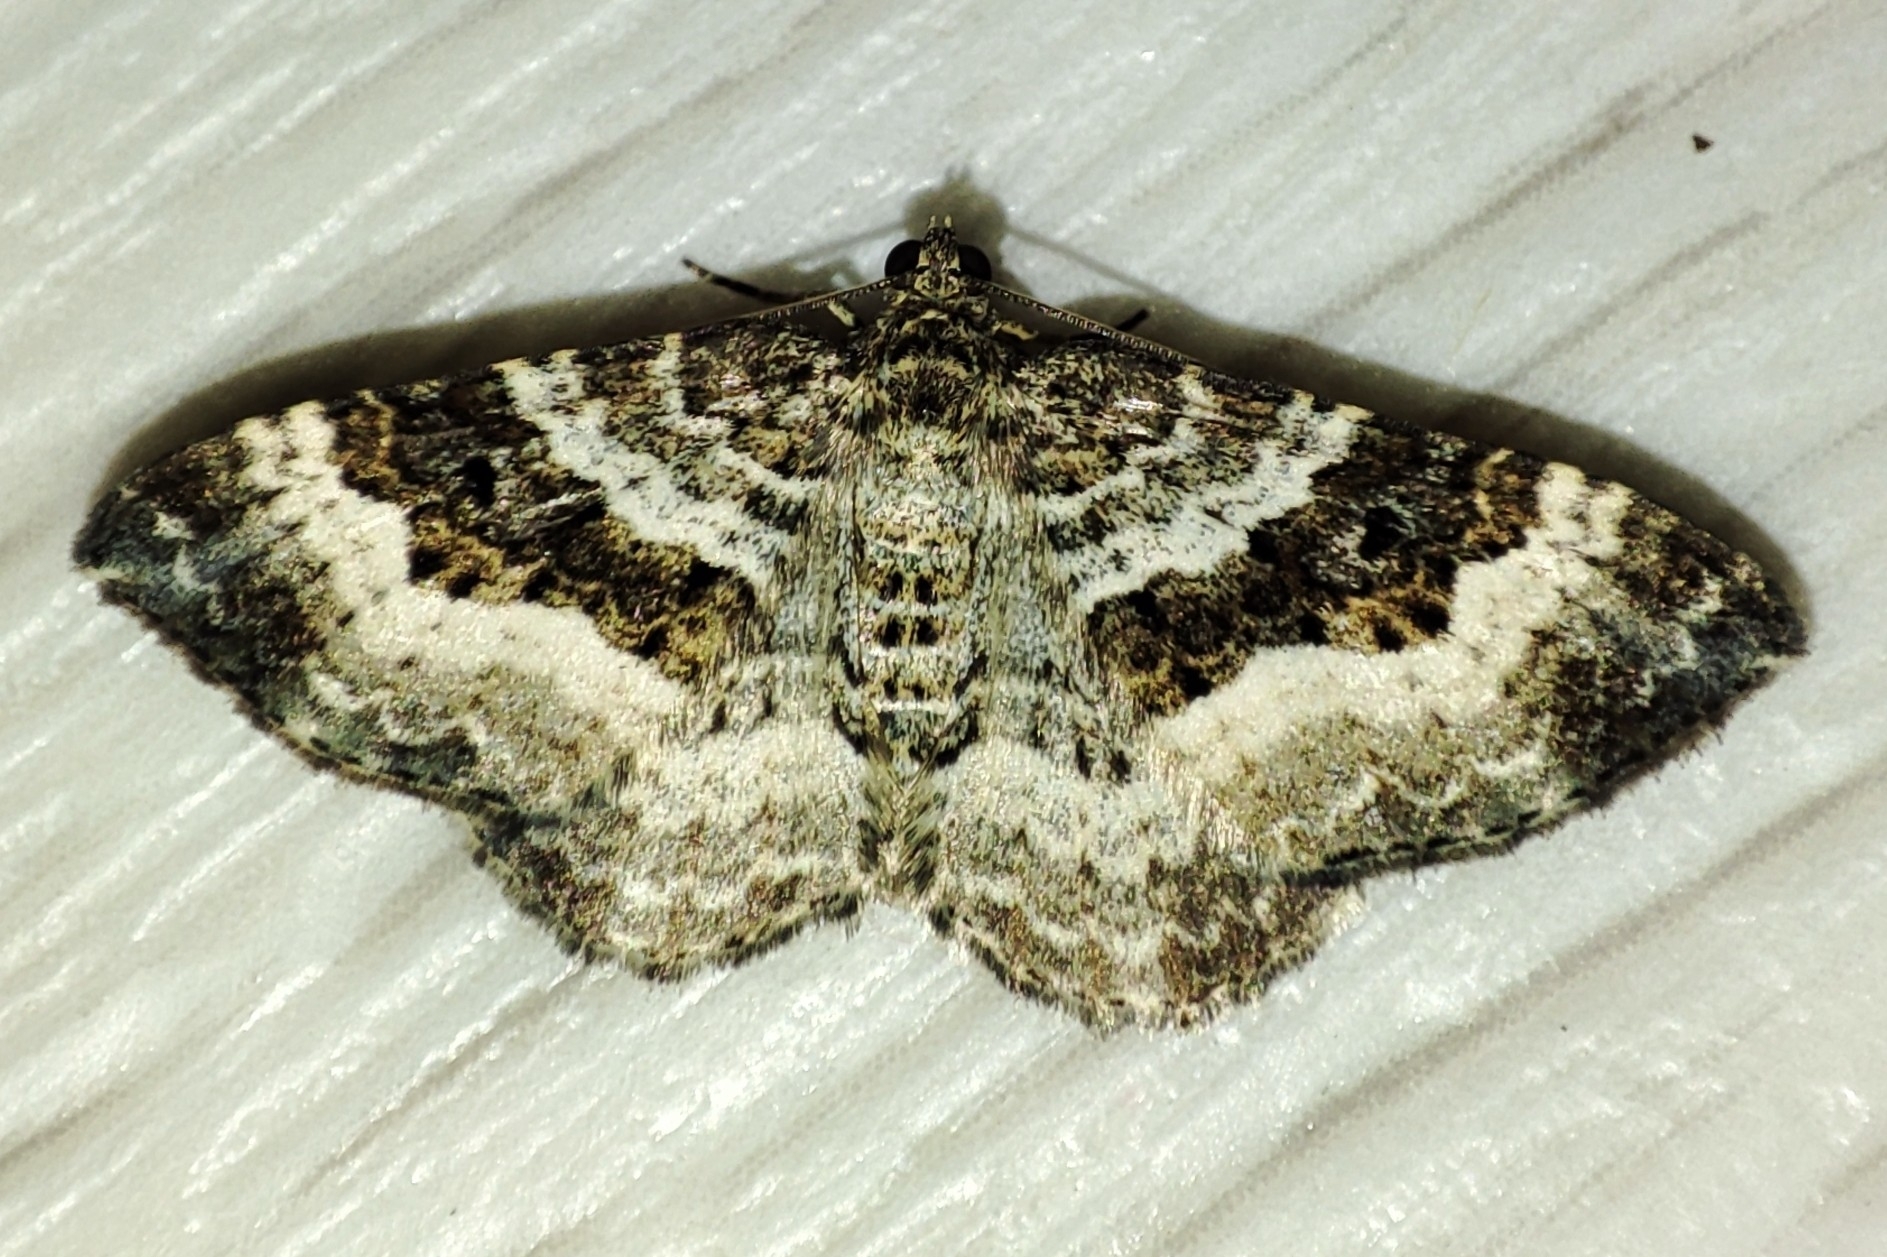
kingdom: Animalia
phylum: Arthropoda
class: Insecta
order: Lepidoptera
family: Geometridae
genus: Epirrhoe
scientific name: Epirrhoe alternata
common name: Common carpet
